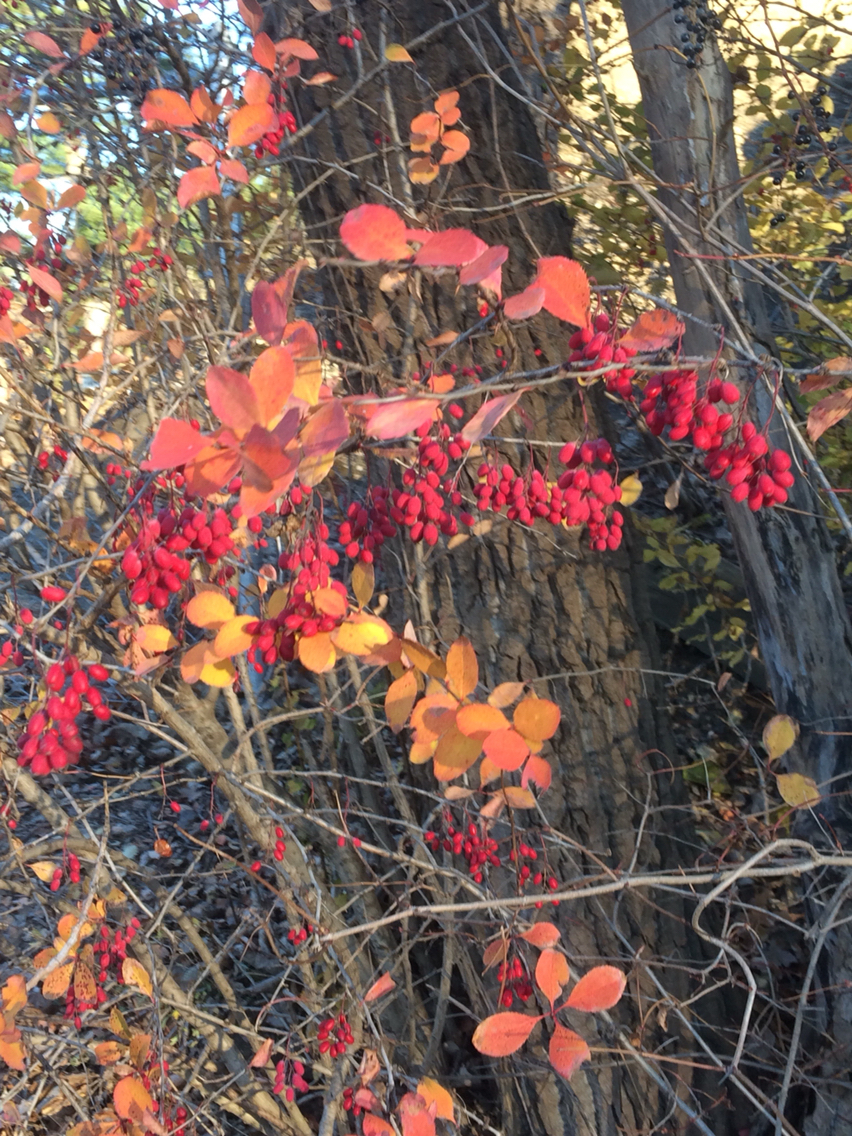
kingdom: Plantae
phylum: Tracheophyta
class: Magnoliopsida
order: Ranunculales
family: Berberidaceae
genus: Berberis
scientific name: Berberis vulgaris
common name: Barberry
